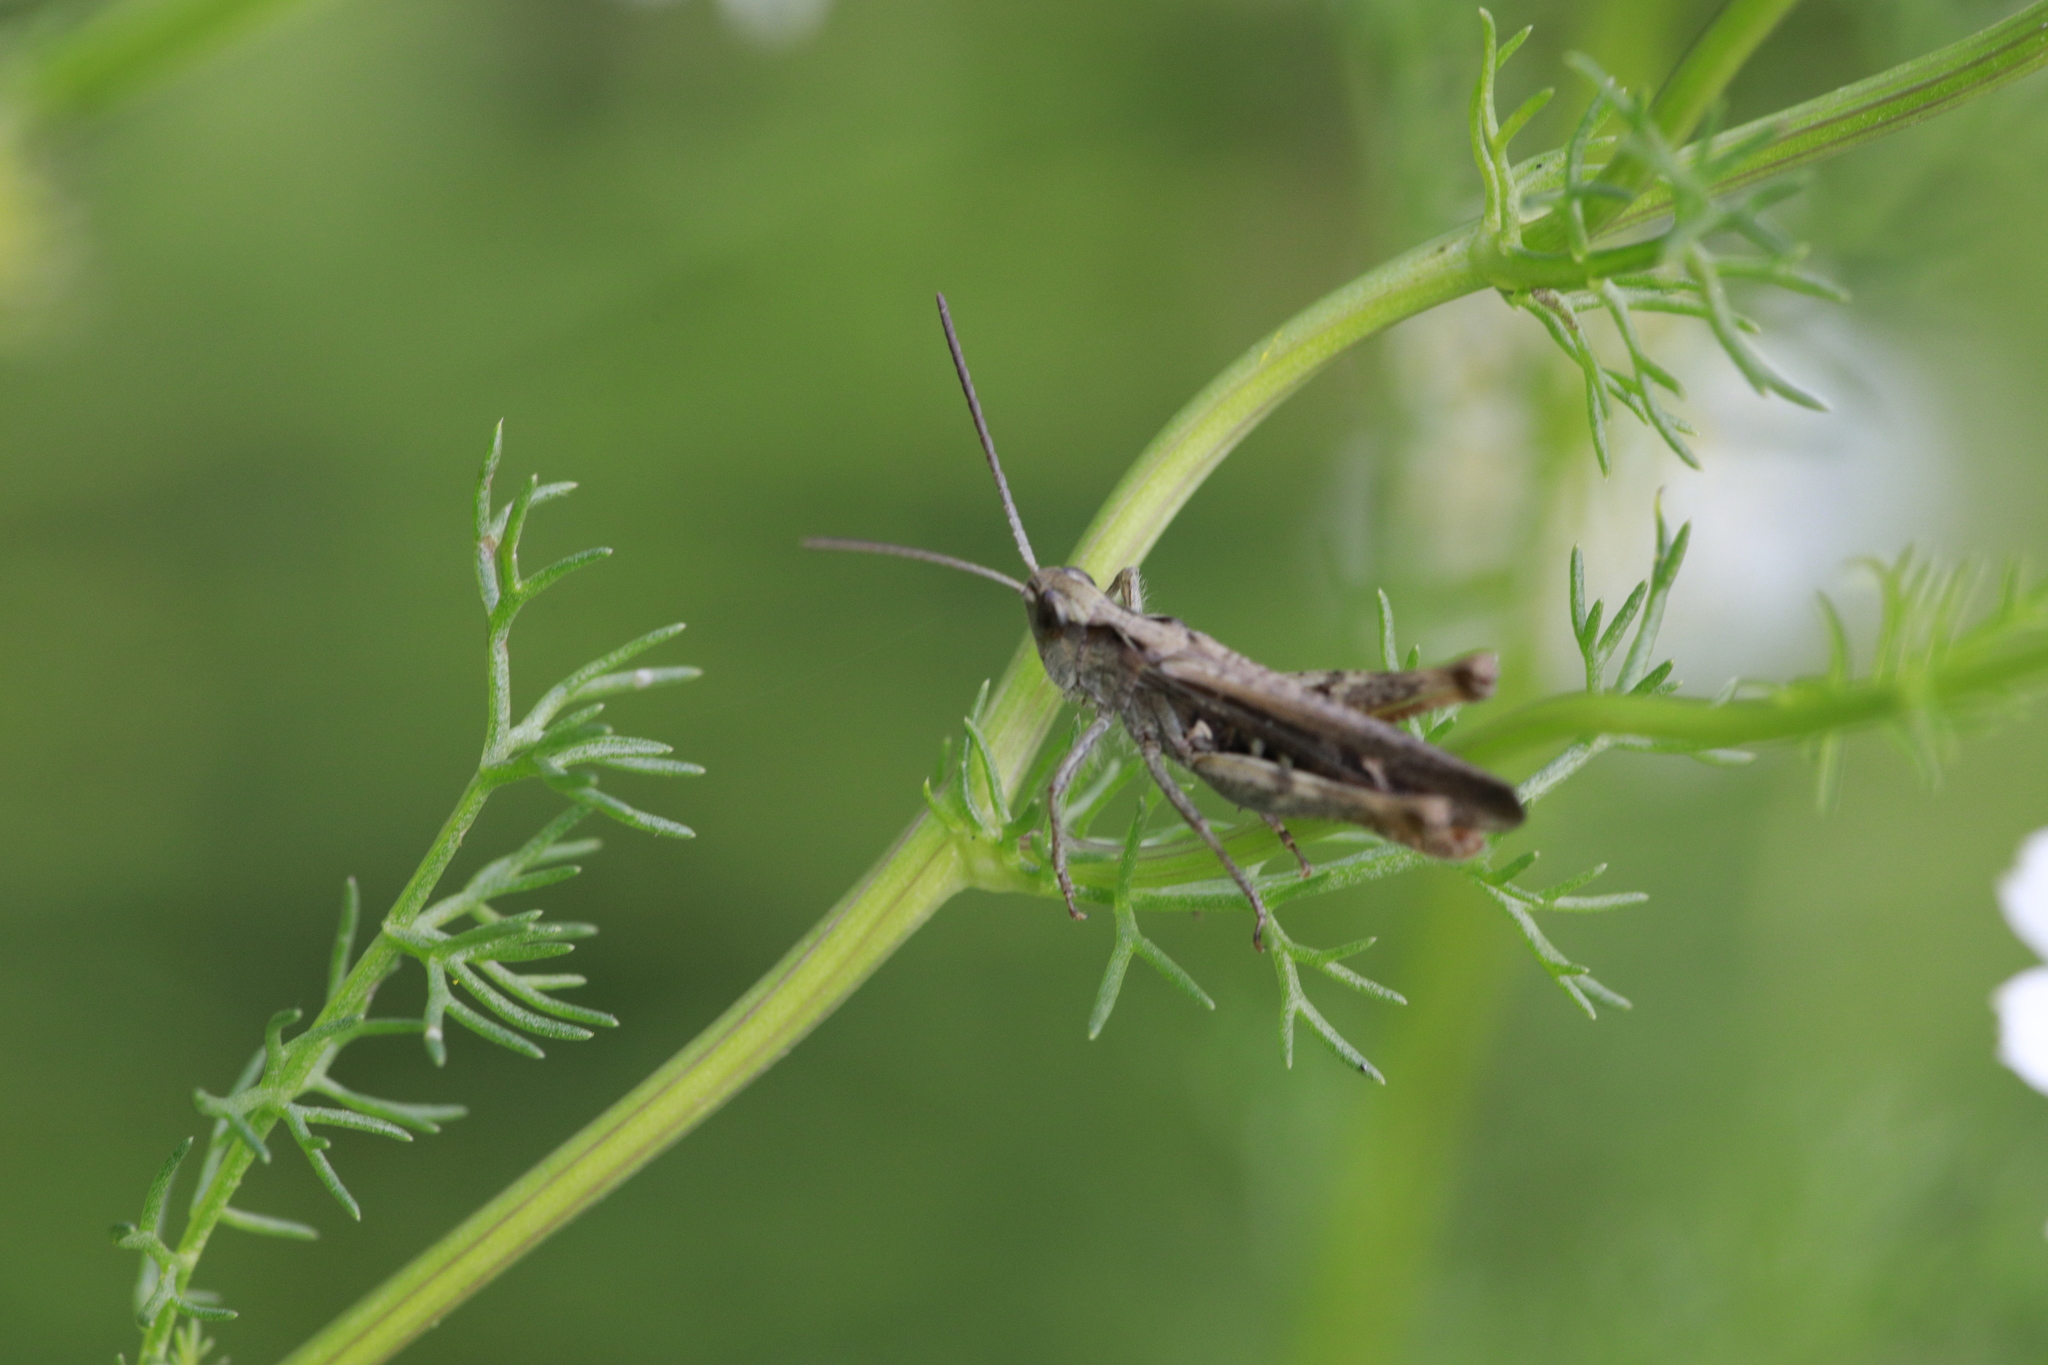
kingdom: Animalia
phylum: Arthropoda
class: Insecta
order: Orthoptera
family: Acrididae
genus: Chorthippus
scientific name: Chorthippus brunneus
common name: Field grasshopper
